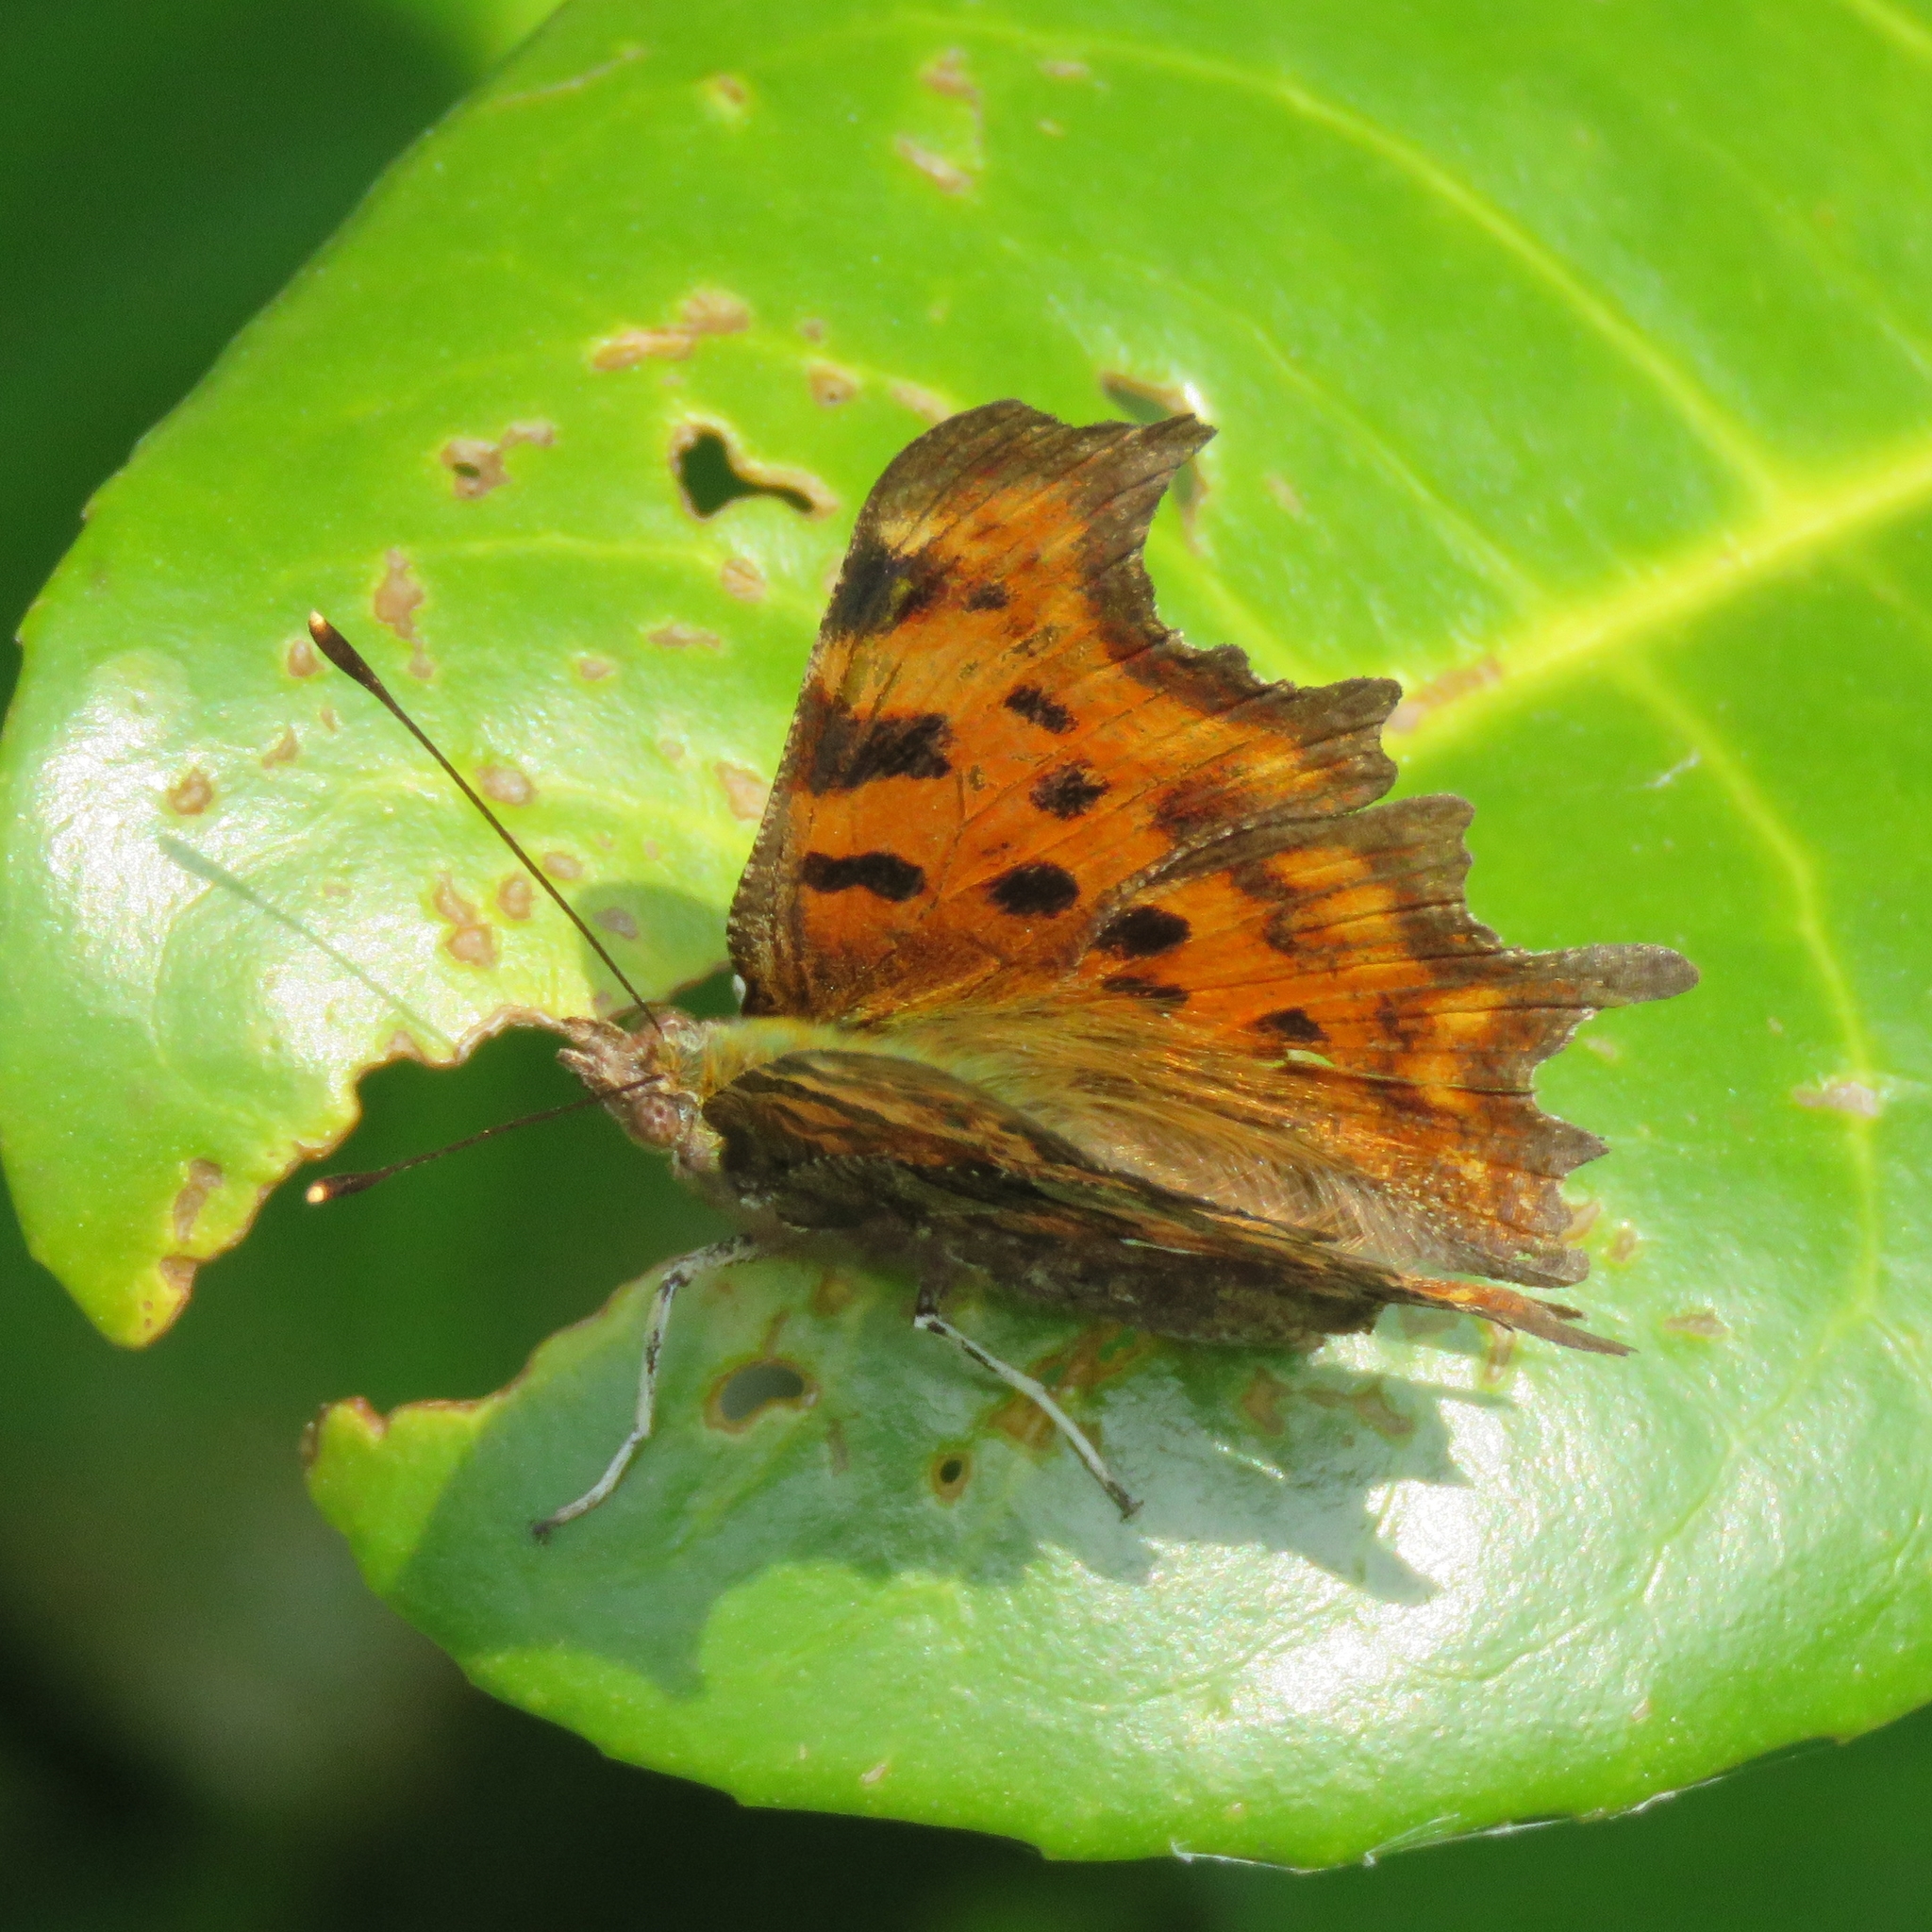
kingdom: Animalia
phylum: Arthropoda
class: Insecta
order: Lepidoptera
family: Nymphalidae
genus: Polygonia
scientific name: Polygonia c-album
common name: Comma
